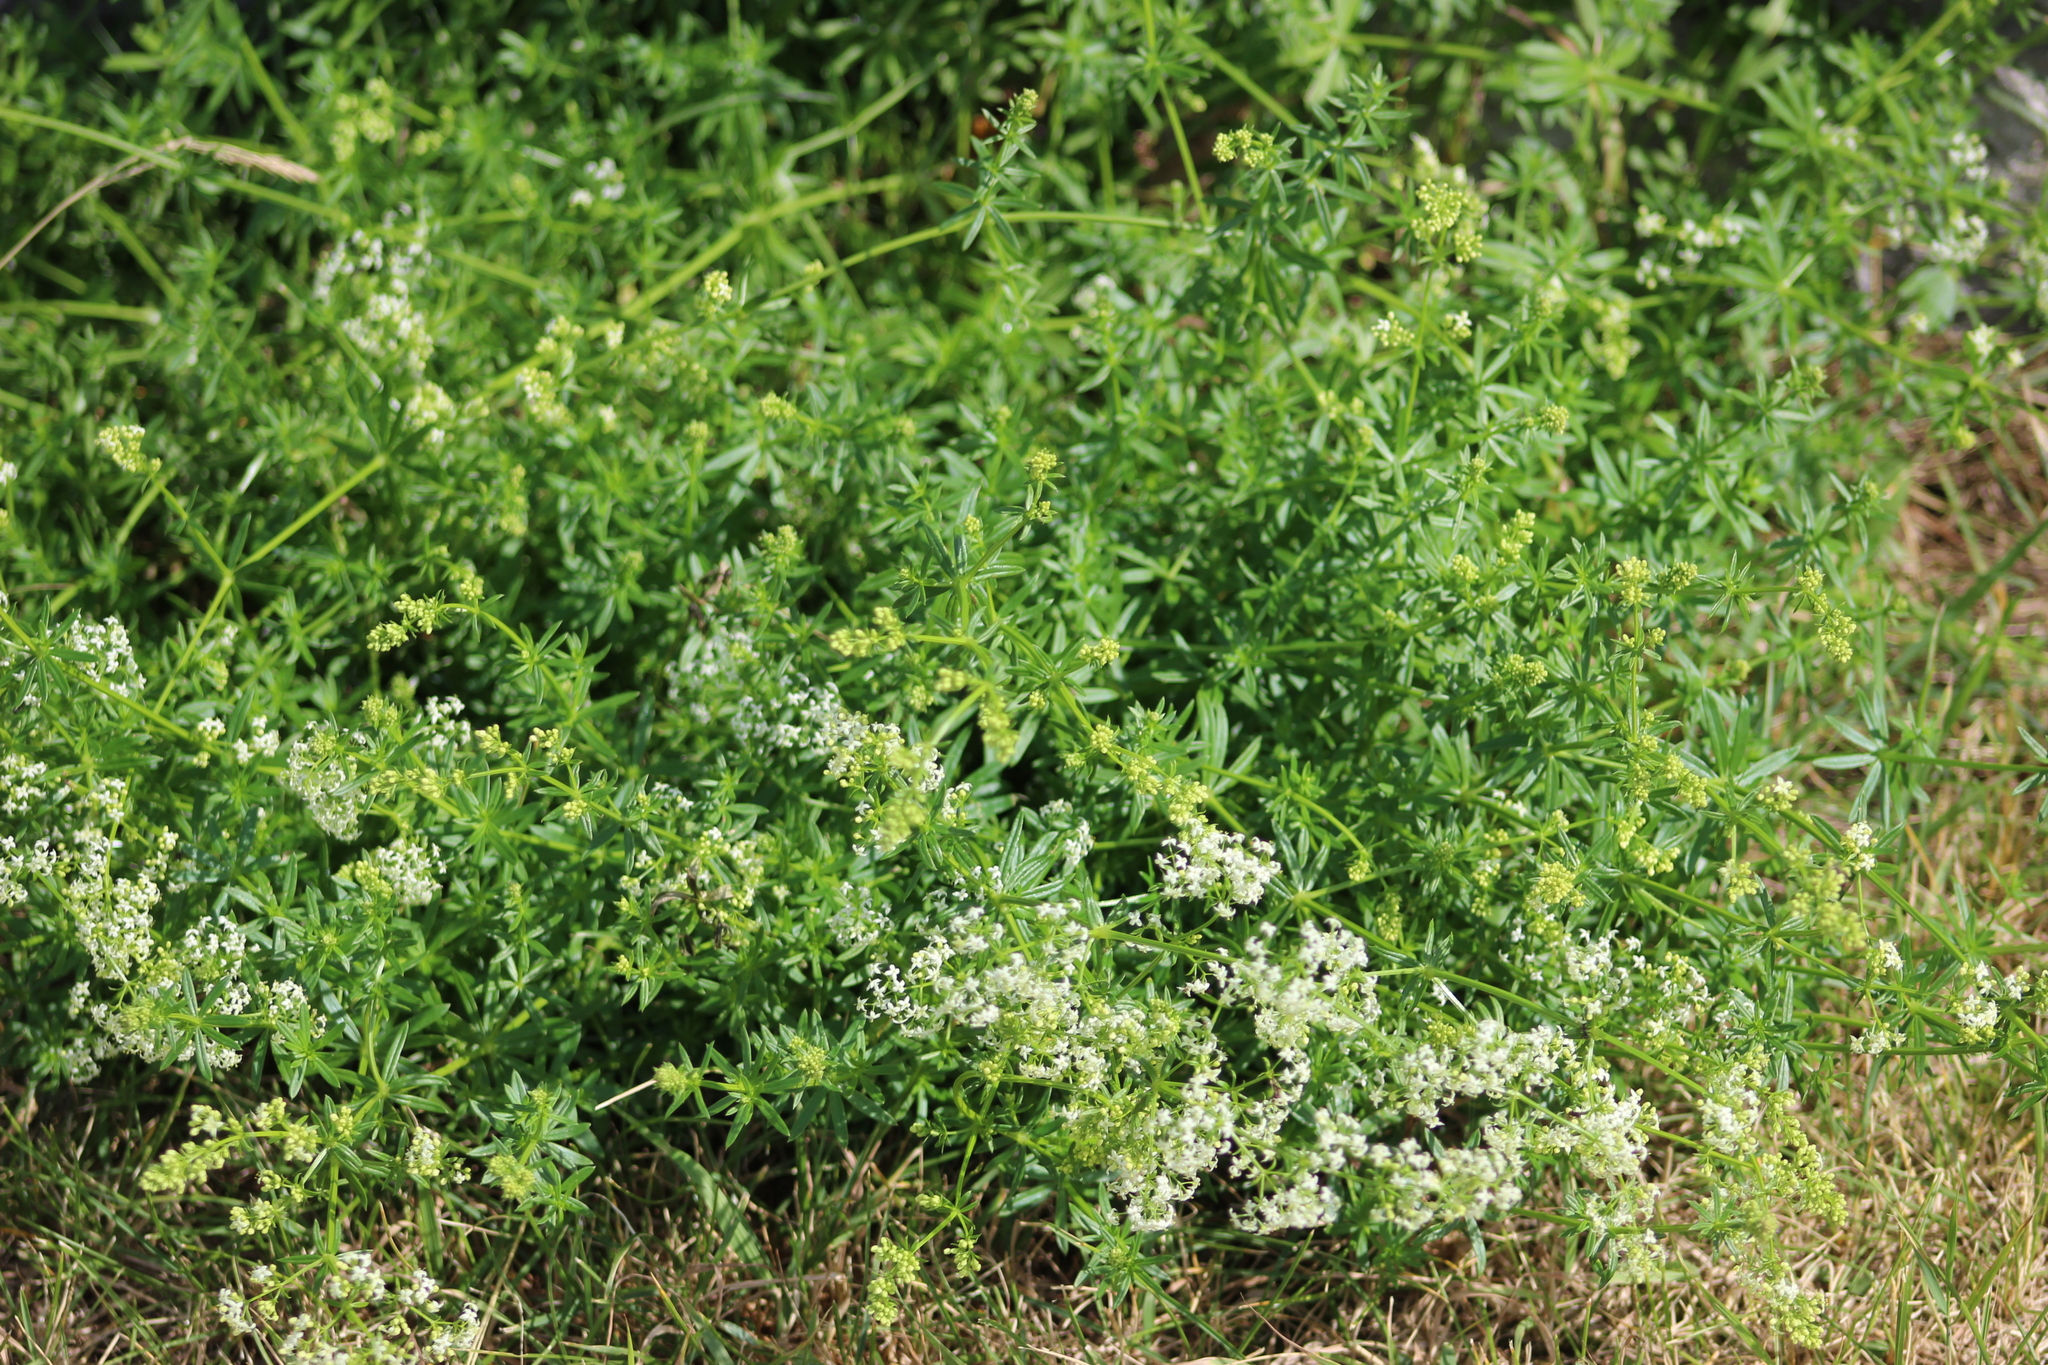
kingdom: Plantae
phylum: Tracheophyta
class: Magnoliopsida
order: Gentianales
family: Rubiaceae
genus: Galium
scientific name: Galium mollugo
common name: Hedge bedstraw
